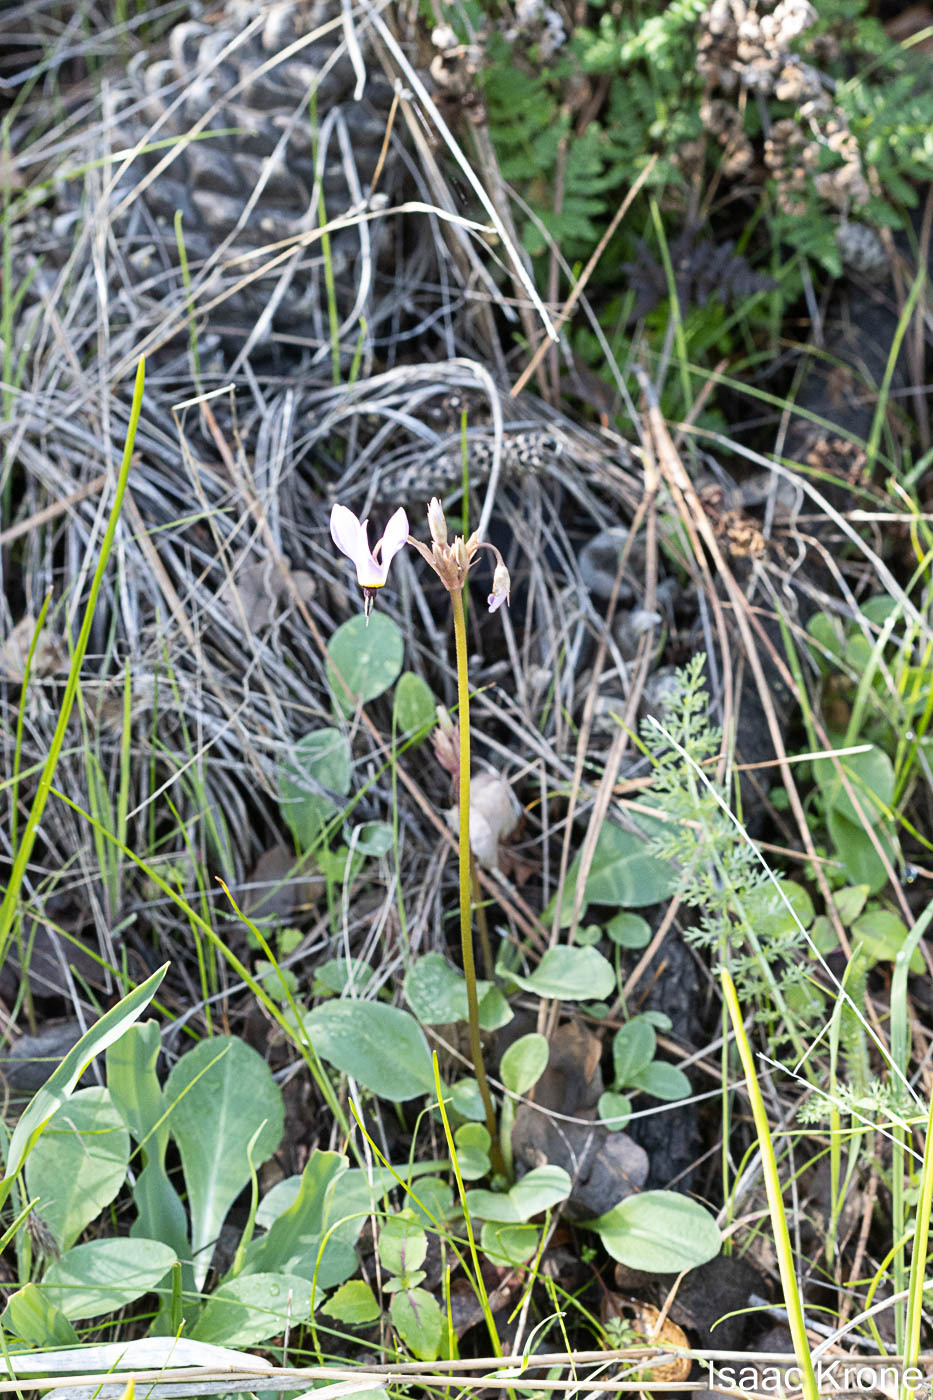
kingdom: Plantae
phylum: Tracheophyta
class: Magnoliopsida
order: Ericales
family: Primulaceae
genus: Dodecatheon
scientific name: Dodecatheon hendersonii
